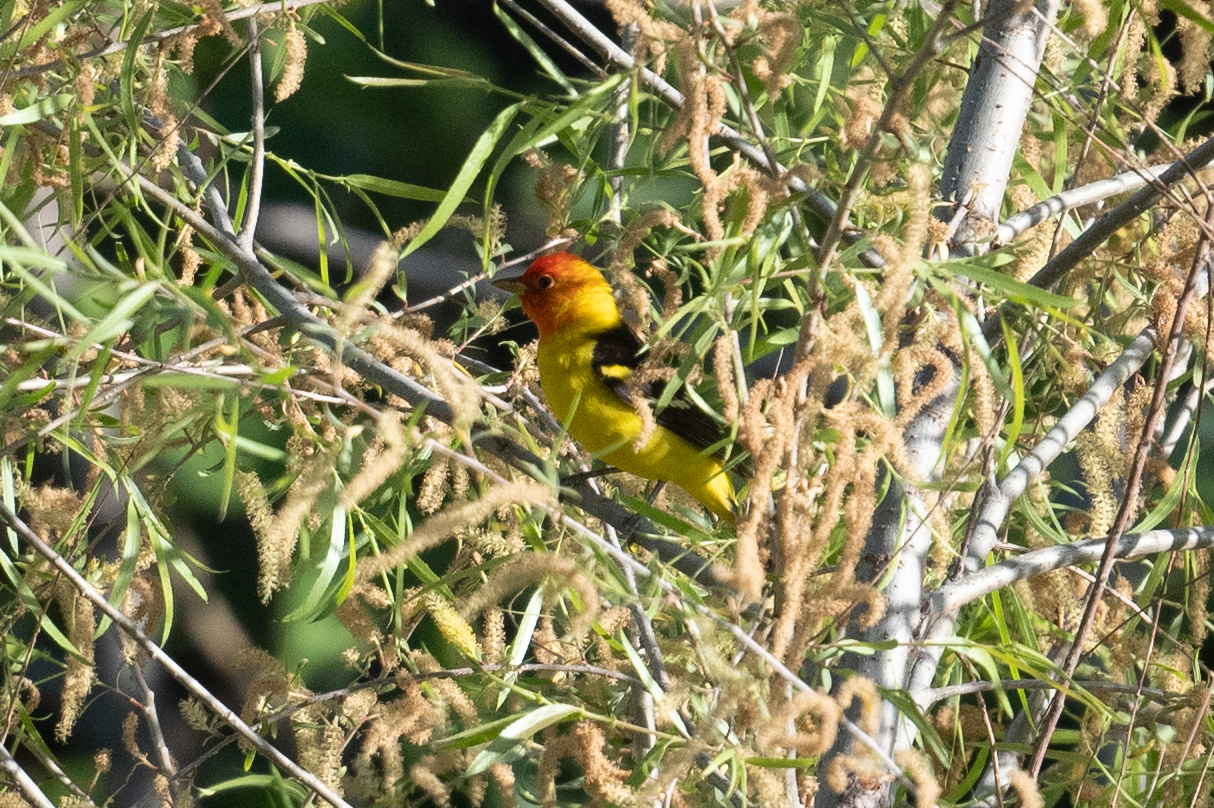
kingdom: Animalia
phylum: Chordata
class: Aves
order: Passeriformes
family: Cardinalidae
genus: Piranga
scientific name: Piranga ludoviciana
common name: Western tanager
